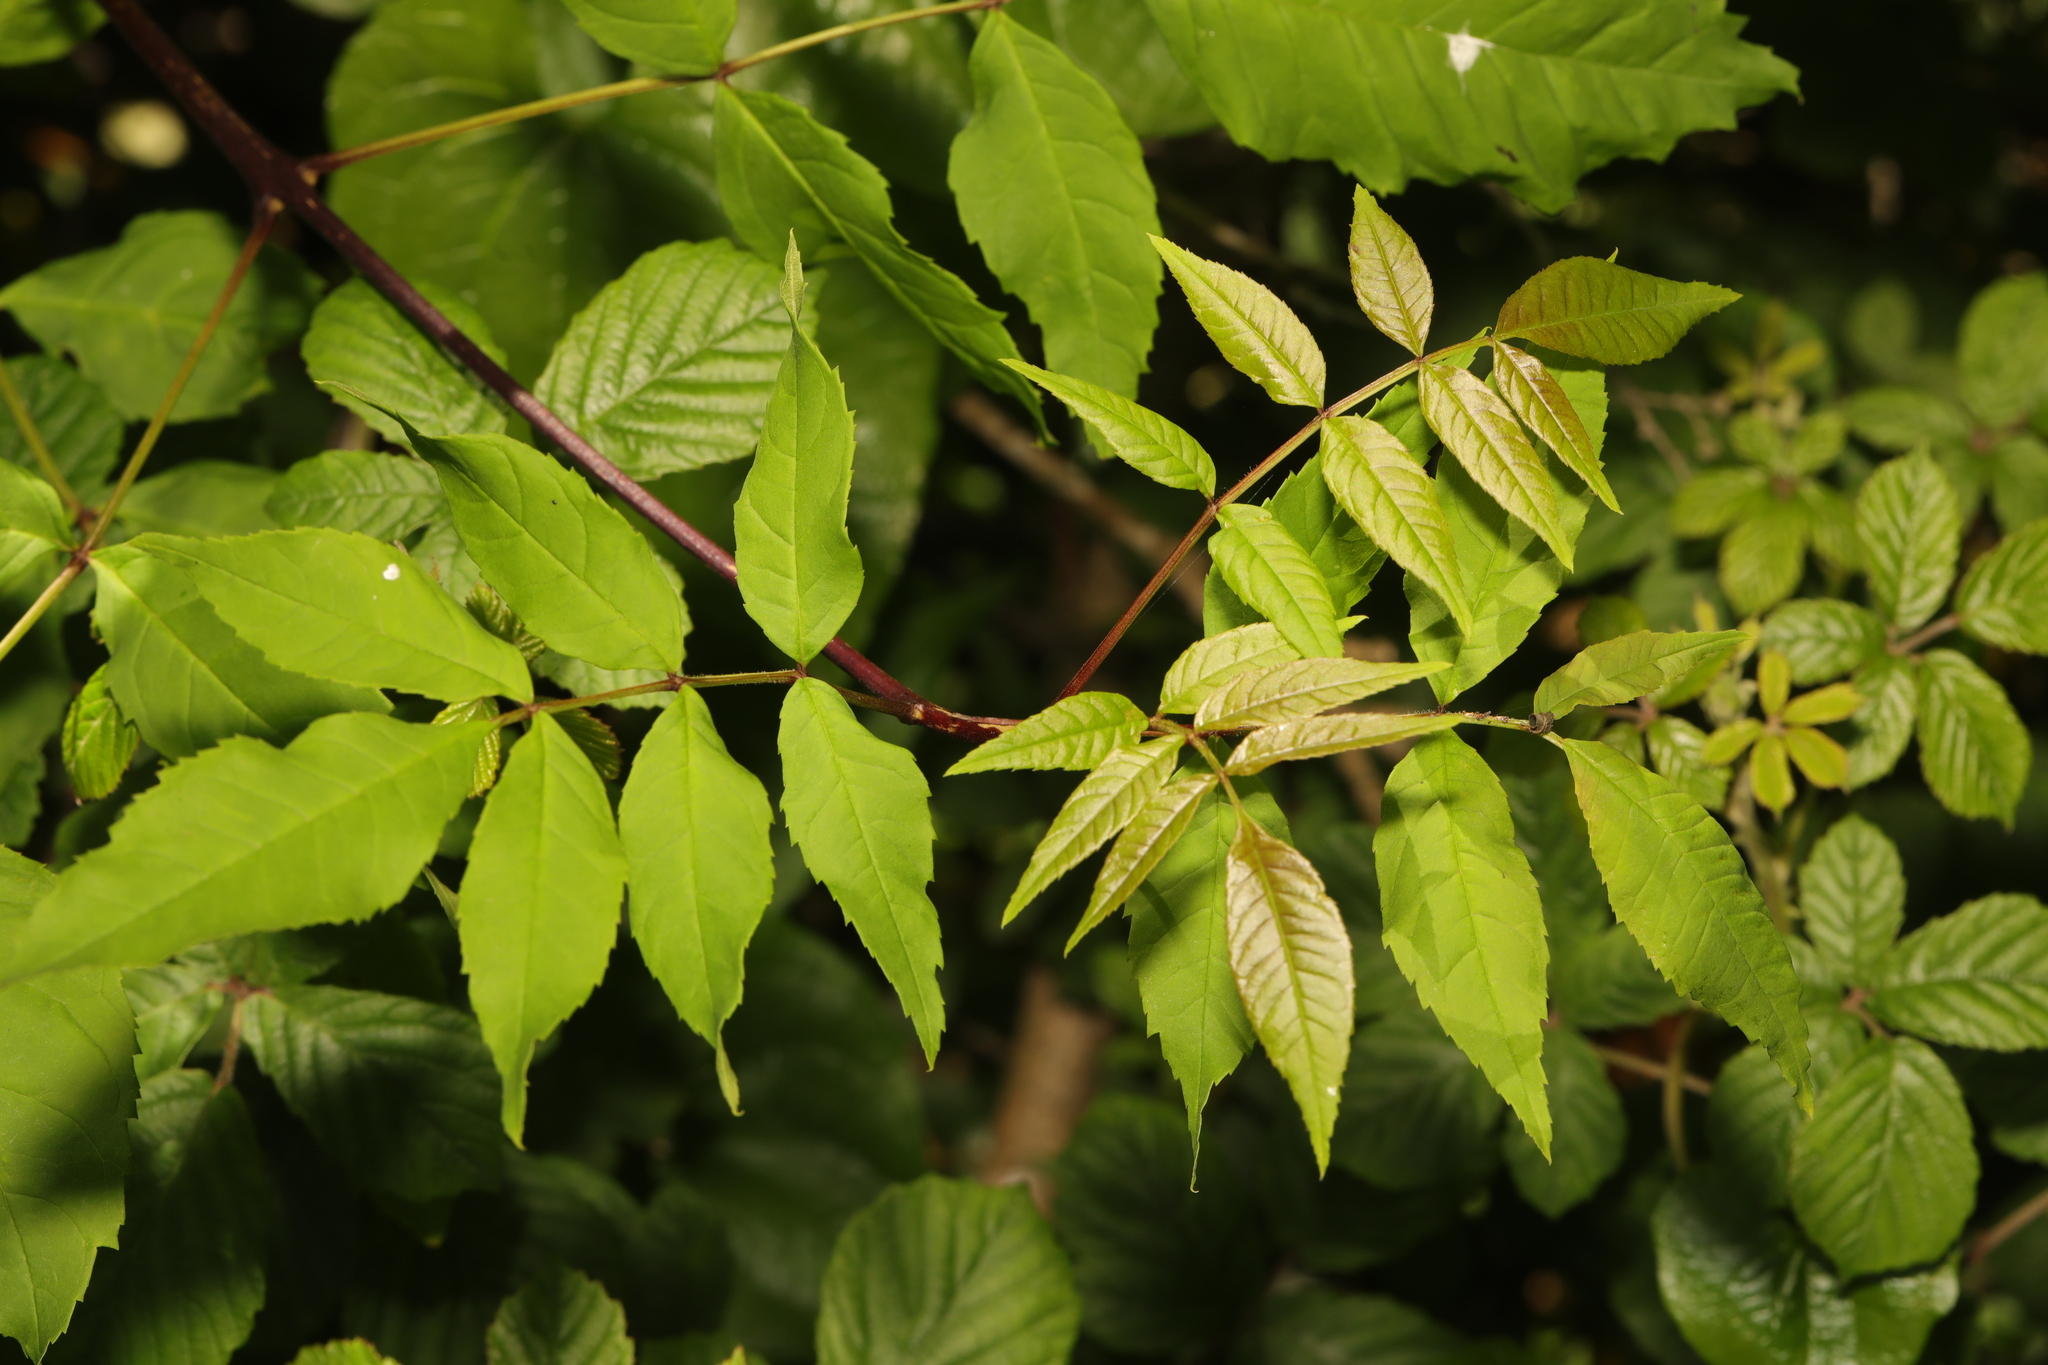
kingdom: Plantae
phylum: Tracheophyta
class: Magnoliopsida
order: Lamiales
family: Oleaceae
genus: Fraxinus
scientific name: Fraxinus excelsior
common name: European ash
